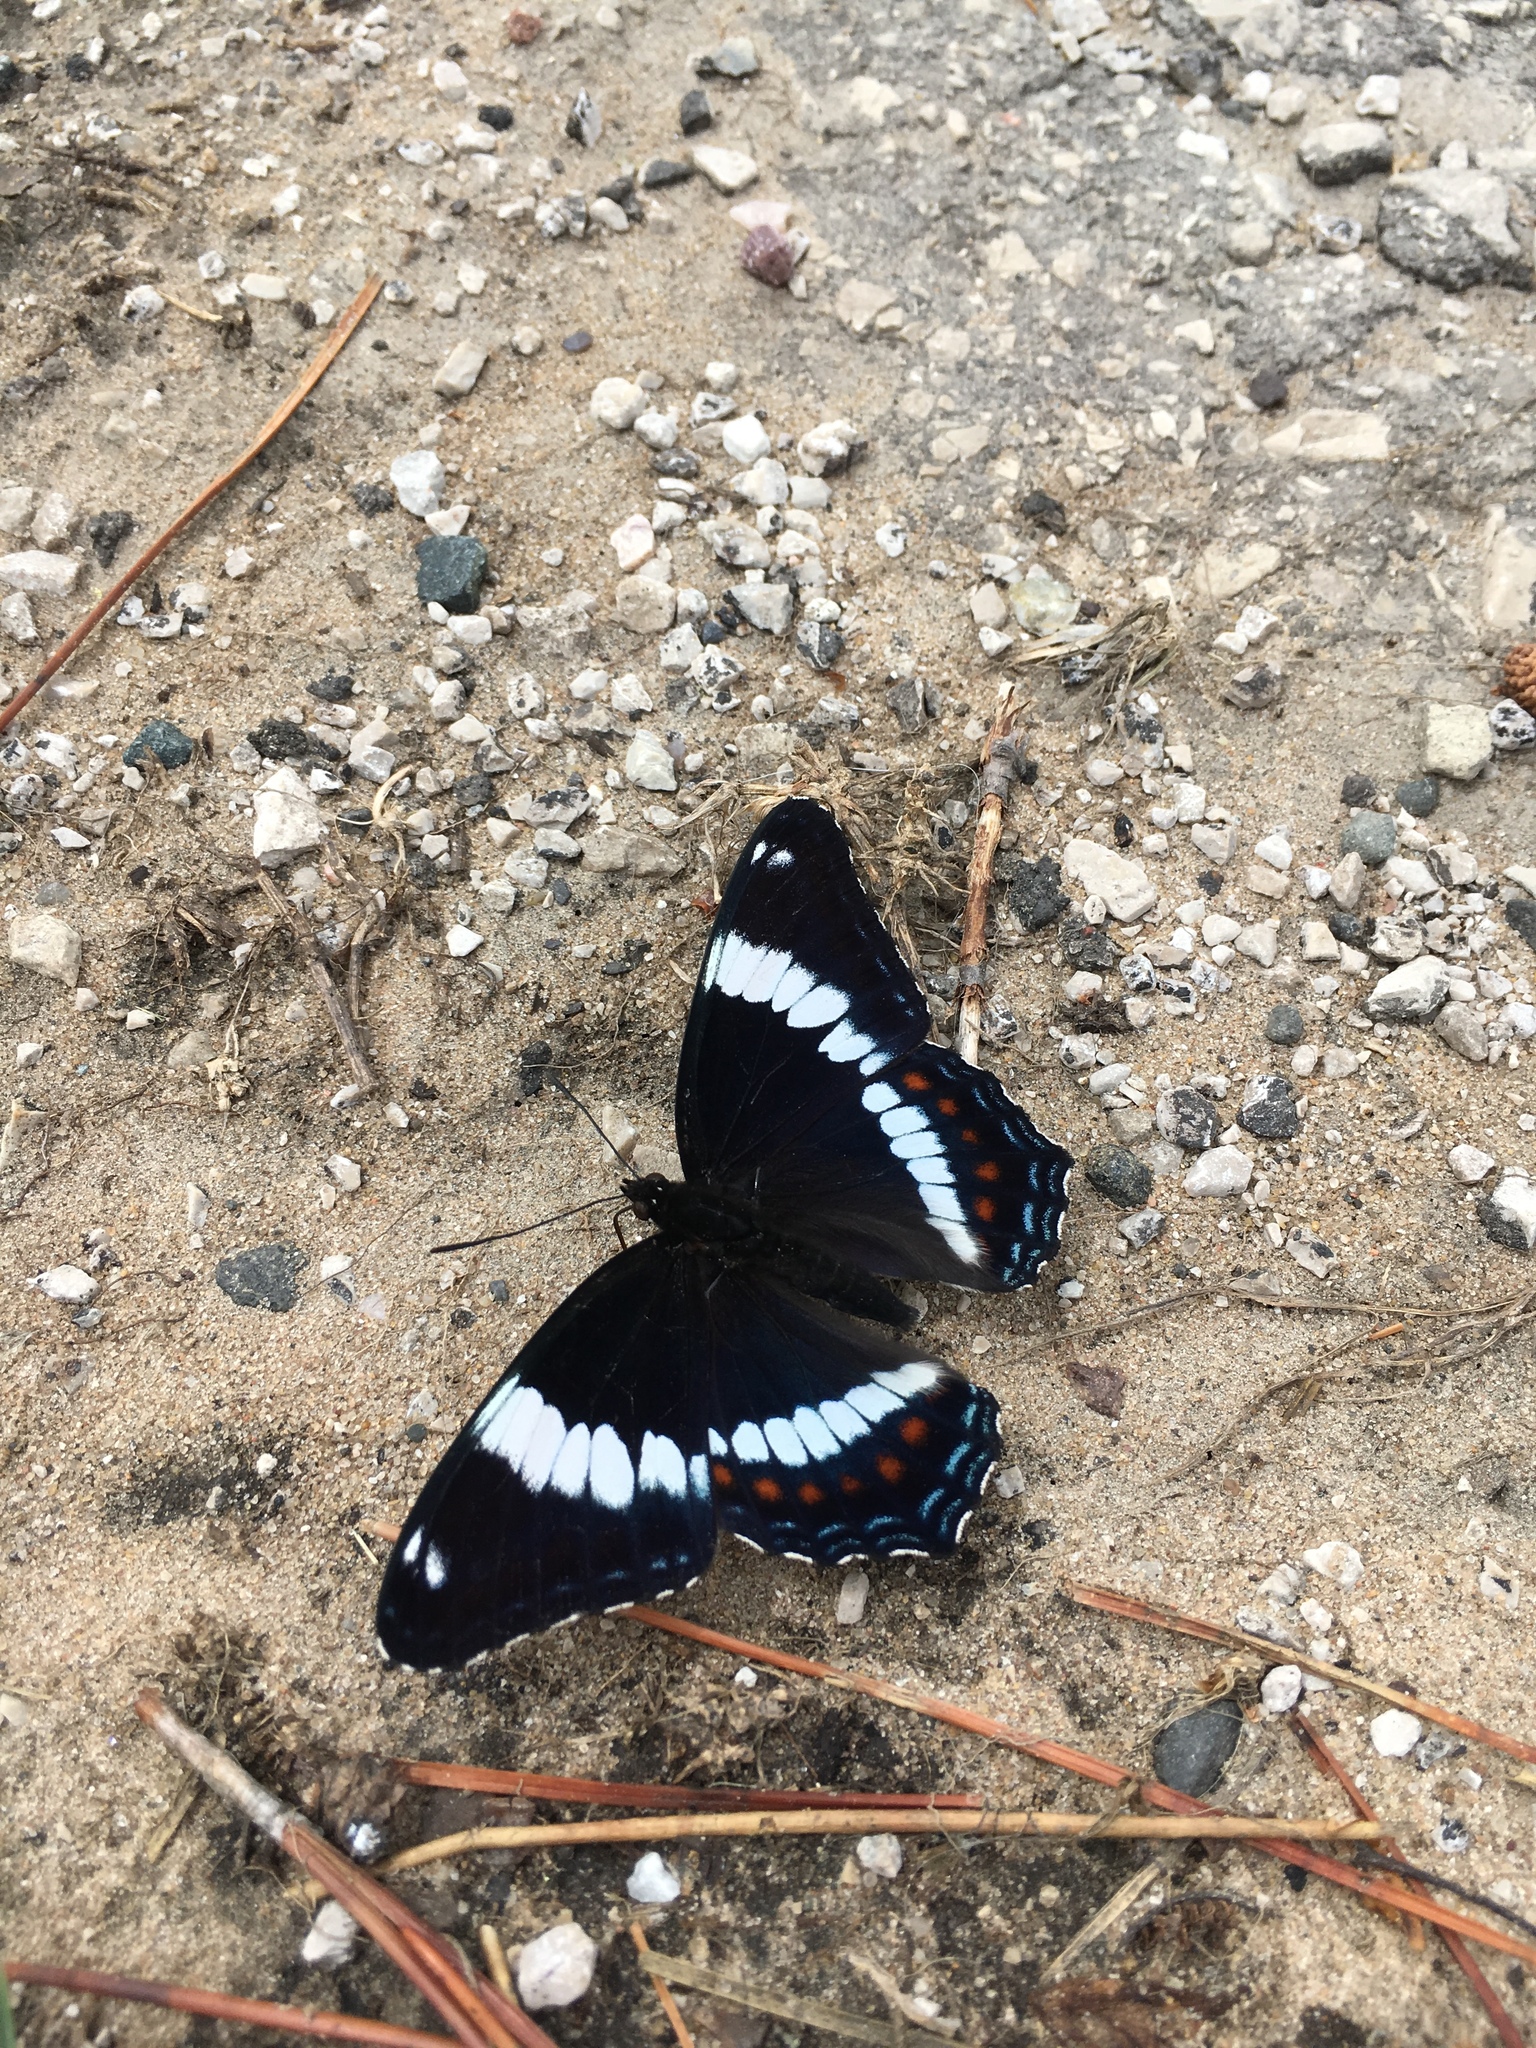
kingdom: Animalia
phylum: Arthropoda
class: Insecta
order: Lepidoptera
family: Nymphalidae
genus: Limenitis
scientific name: Limenitis arthemis
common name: Red-spotted admiral
